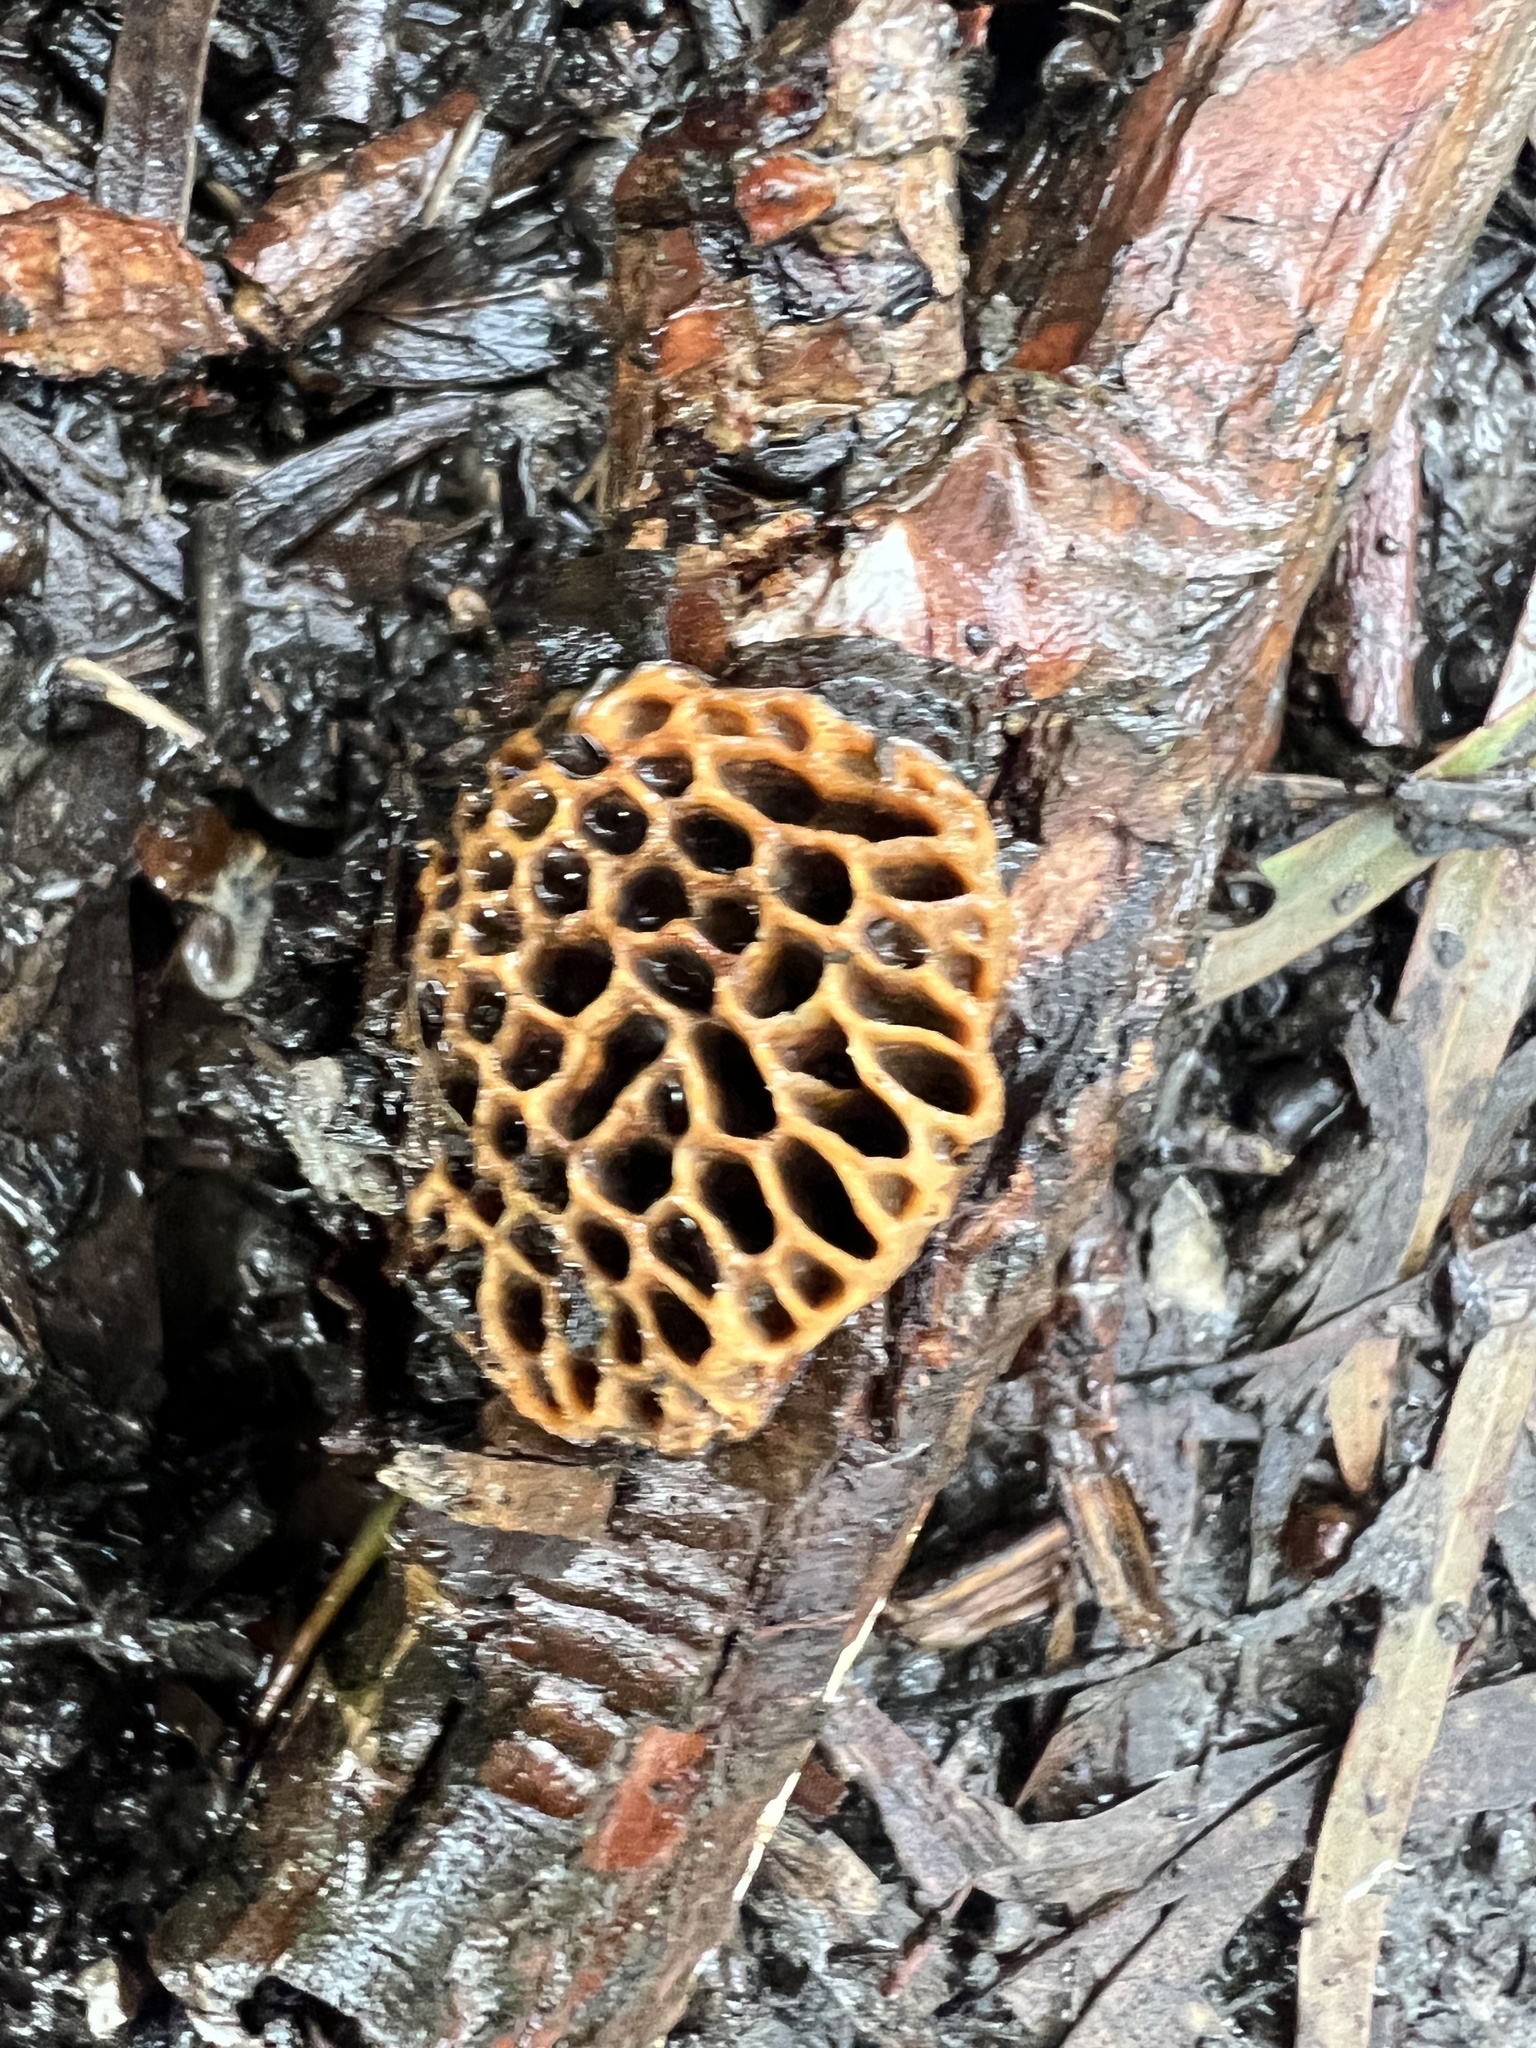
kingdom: Fungi
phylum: Basidiomycota
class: Agaricomycetes
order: Polyporales
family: Polyporaceae
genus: Hexagonia
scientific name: Hexagonia vesparia
